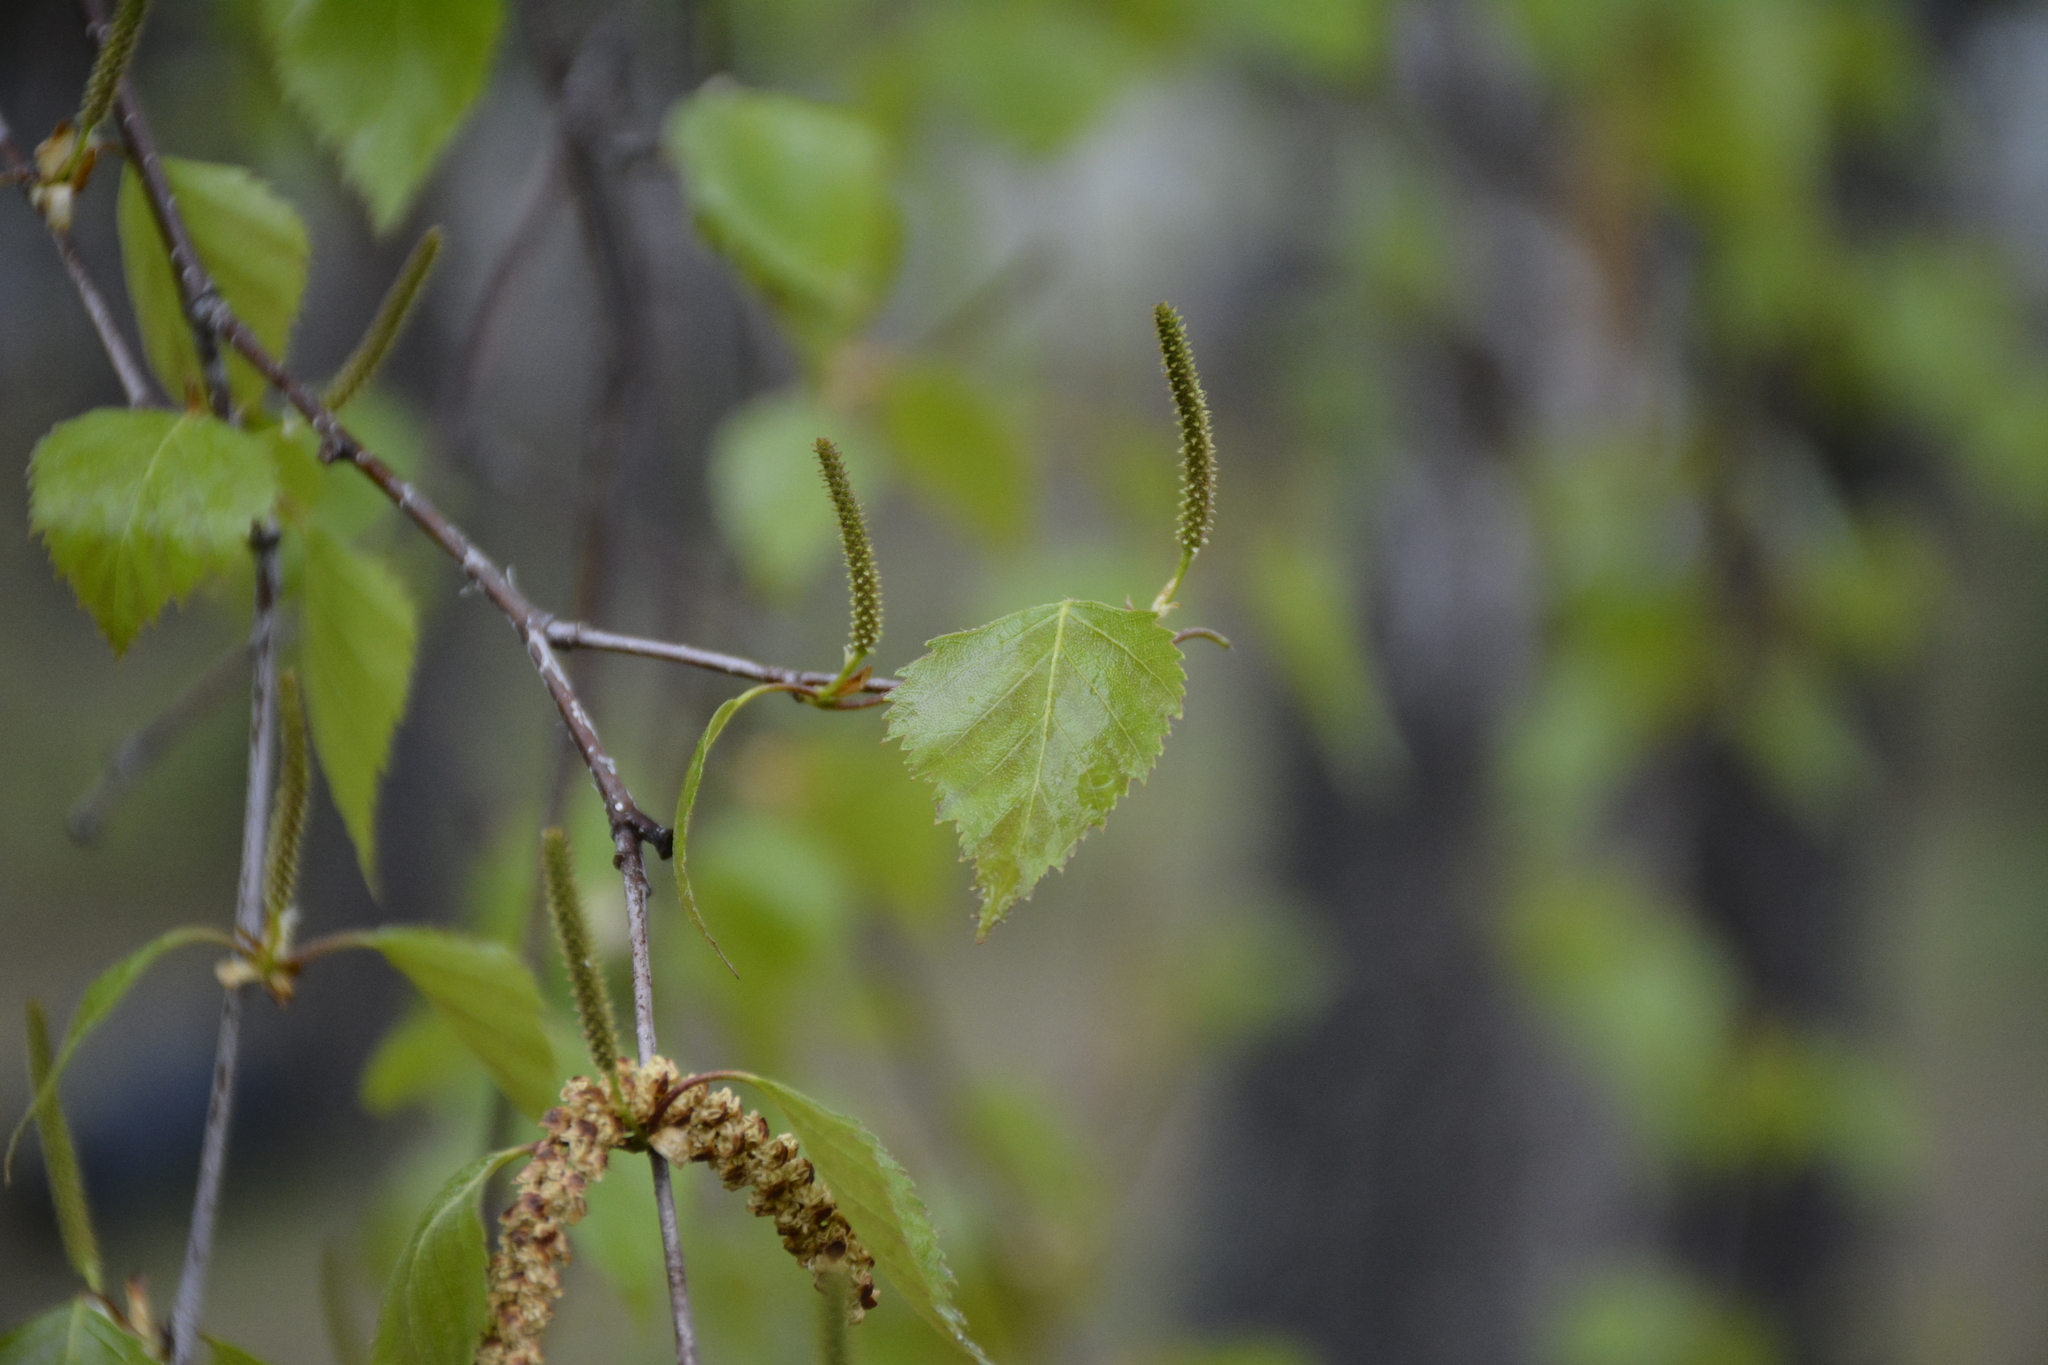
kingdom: Plantae
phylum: Tracheophyta
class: Magnoliopsida
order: Fagales
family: Betulaceae
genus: Betula
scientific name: Betula pendula
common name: Silver birch
